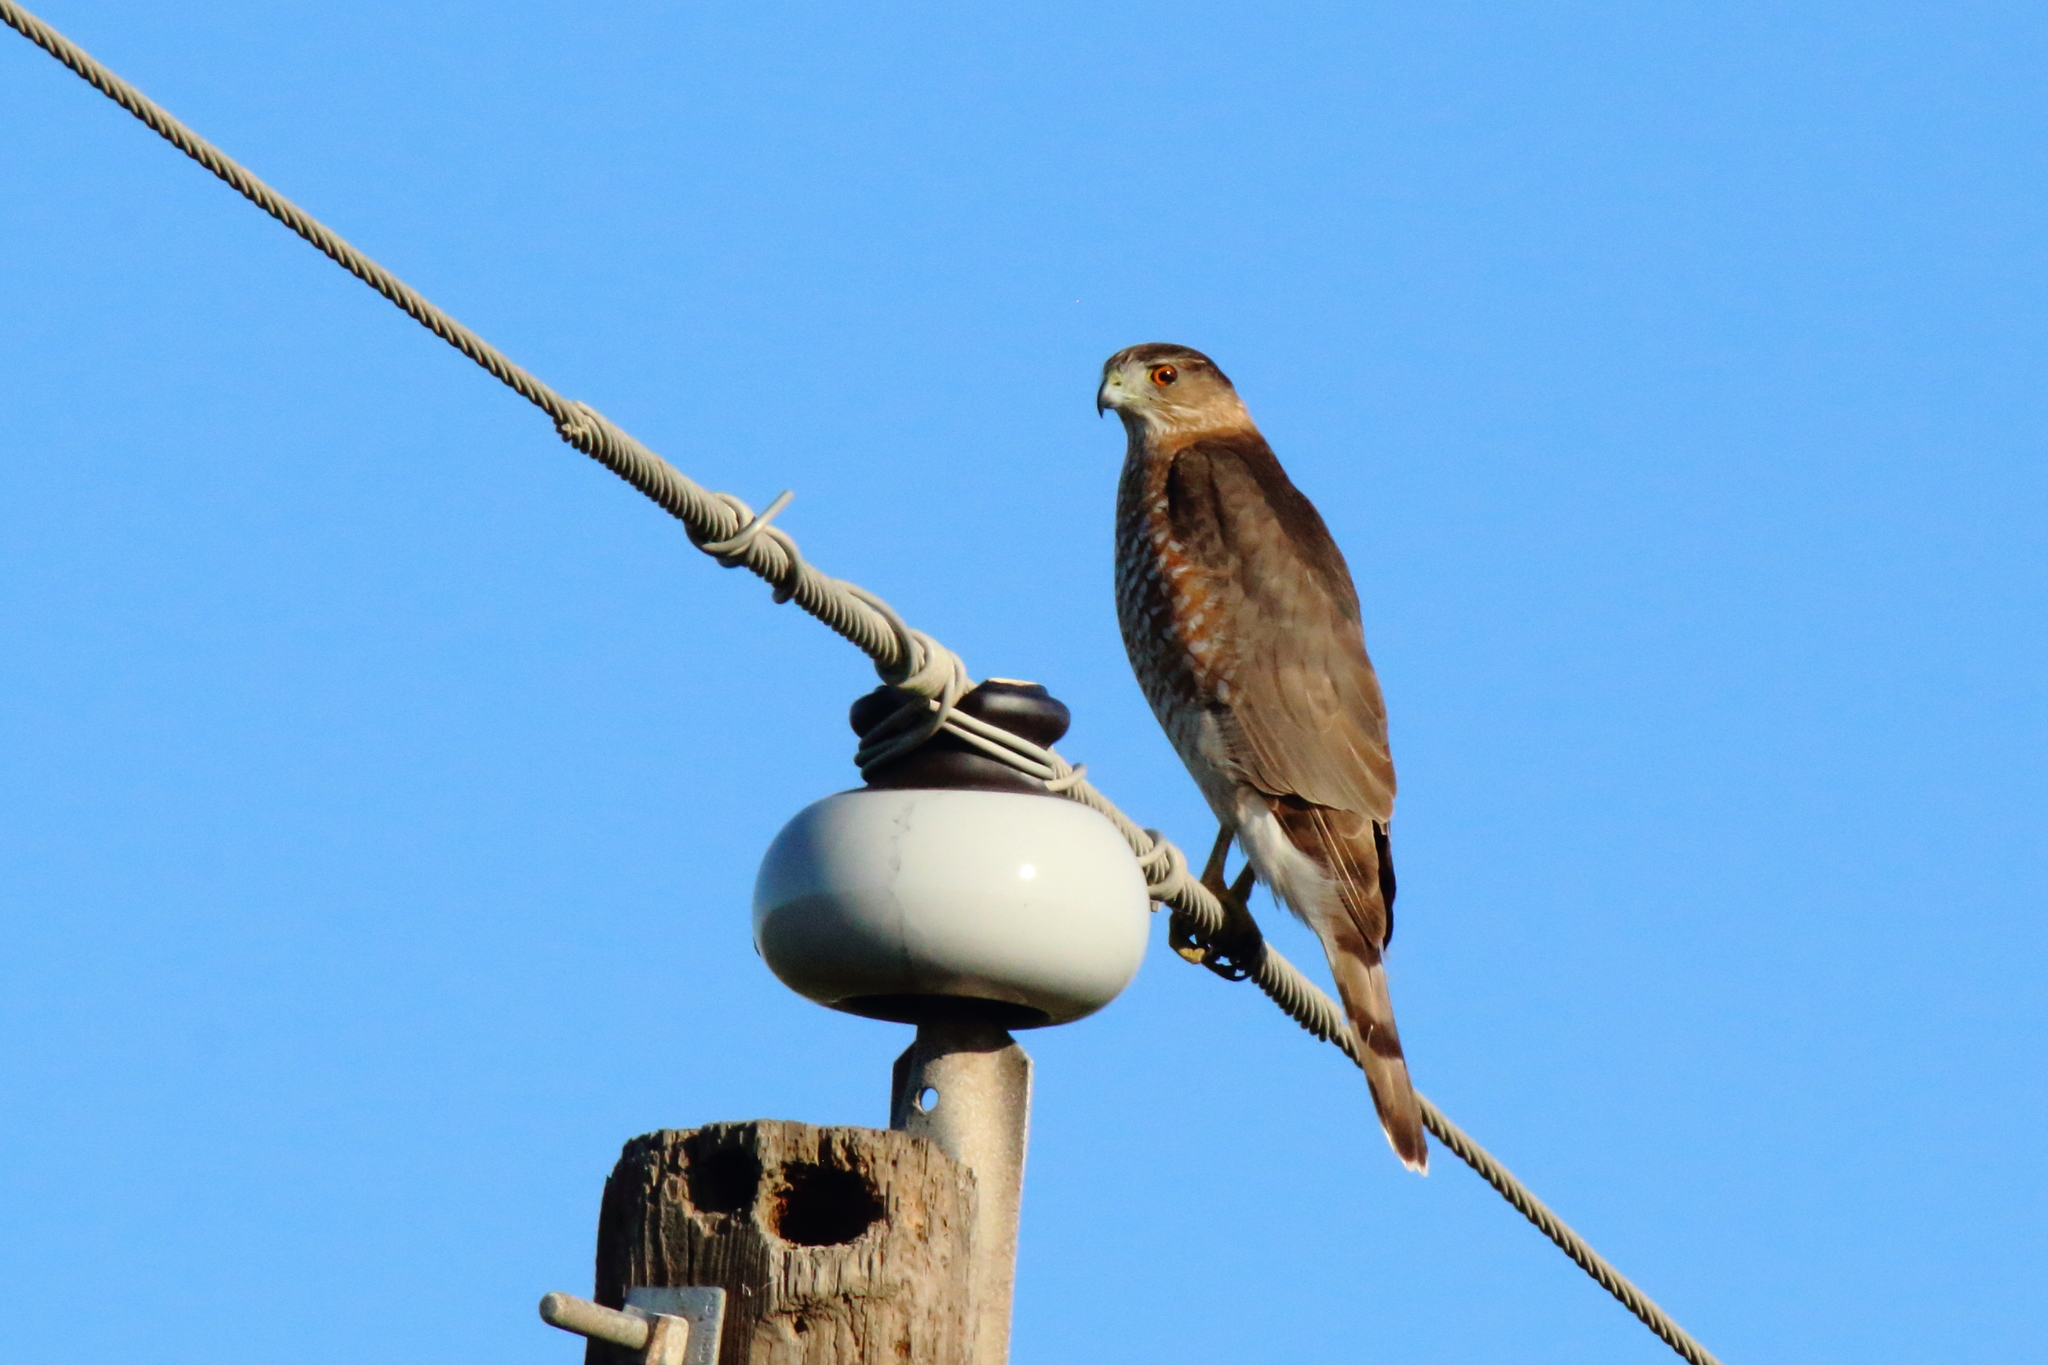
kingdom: Animalia
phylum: Chordata
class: Aves
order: Accipitriformes
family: Accipitridae
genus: Accipiter
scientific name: Accipiter cooperii
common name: Cooper's hawk
